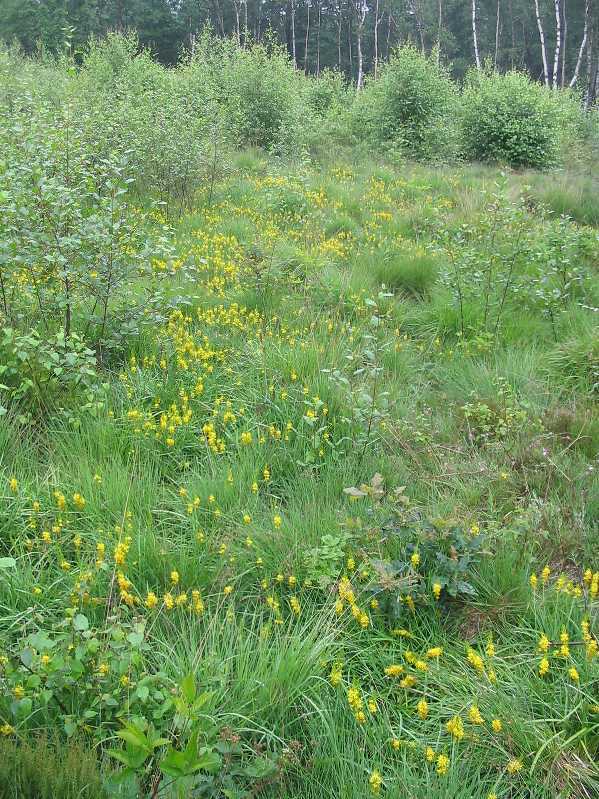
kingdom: Plantae
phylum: Tracheophyta
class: Liliopsida
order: Dioscoreales
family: Nartheciaceae
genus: Narthecium
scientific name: Narthecium ossifragum
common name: Bog asphodel
